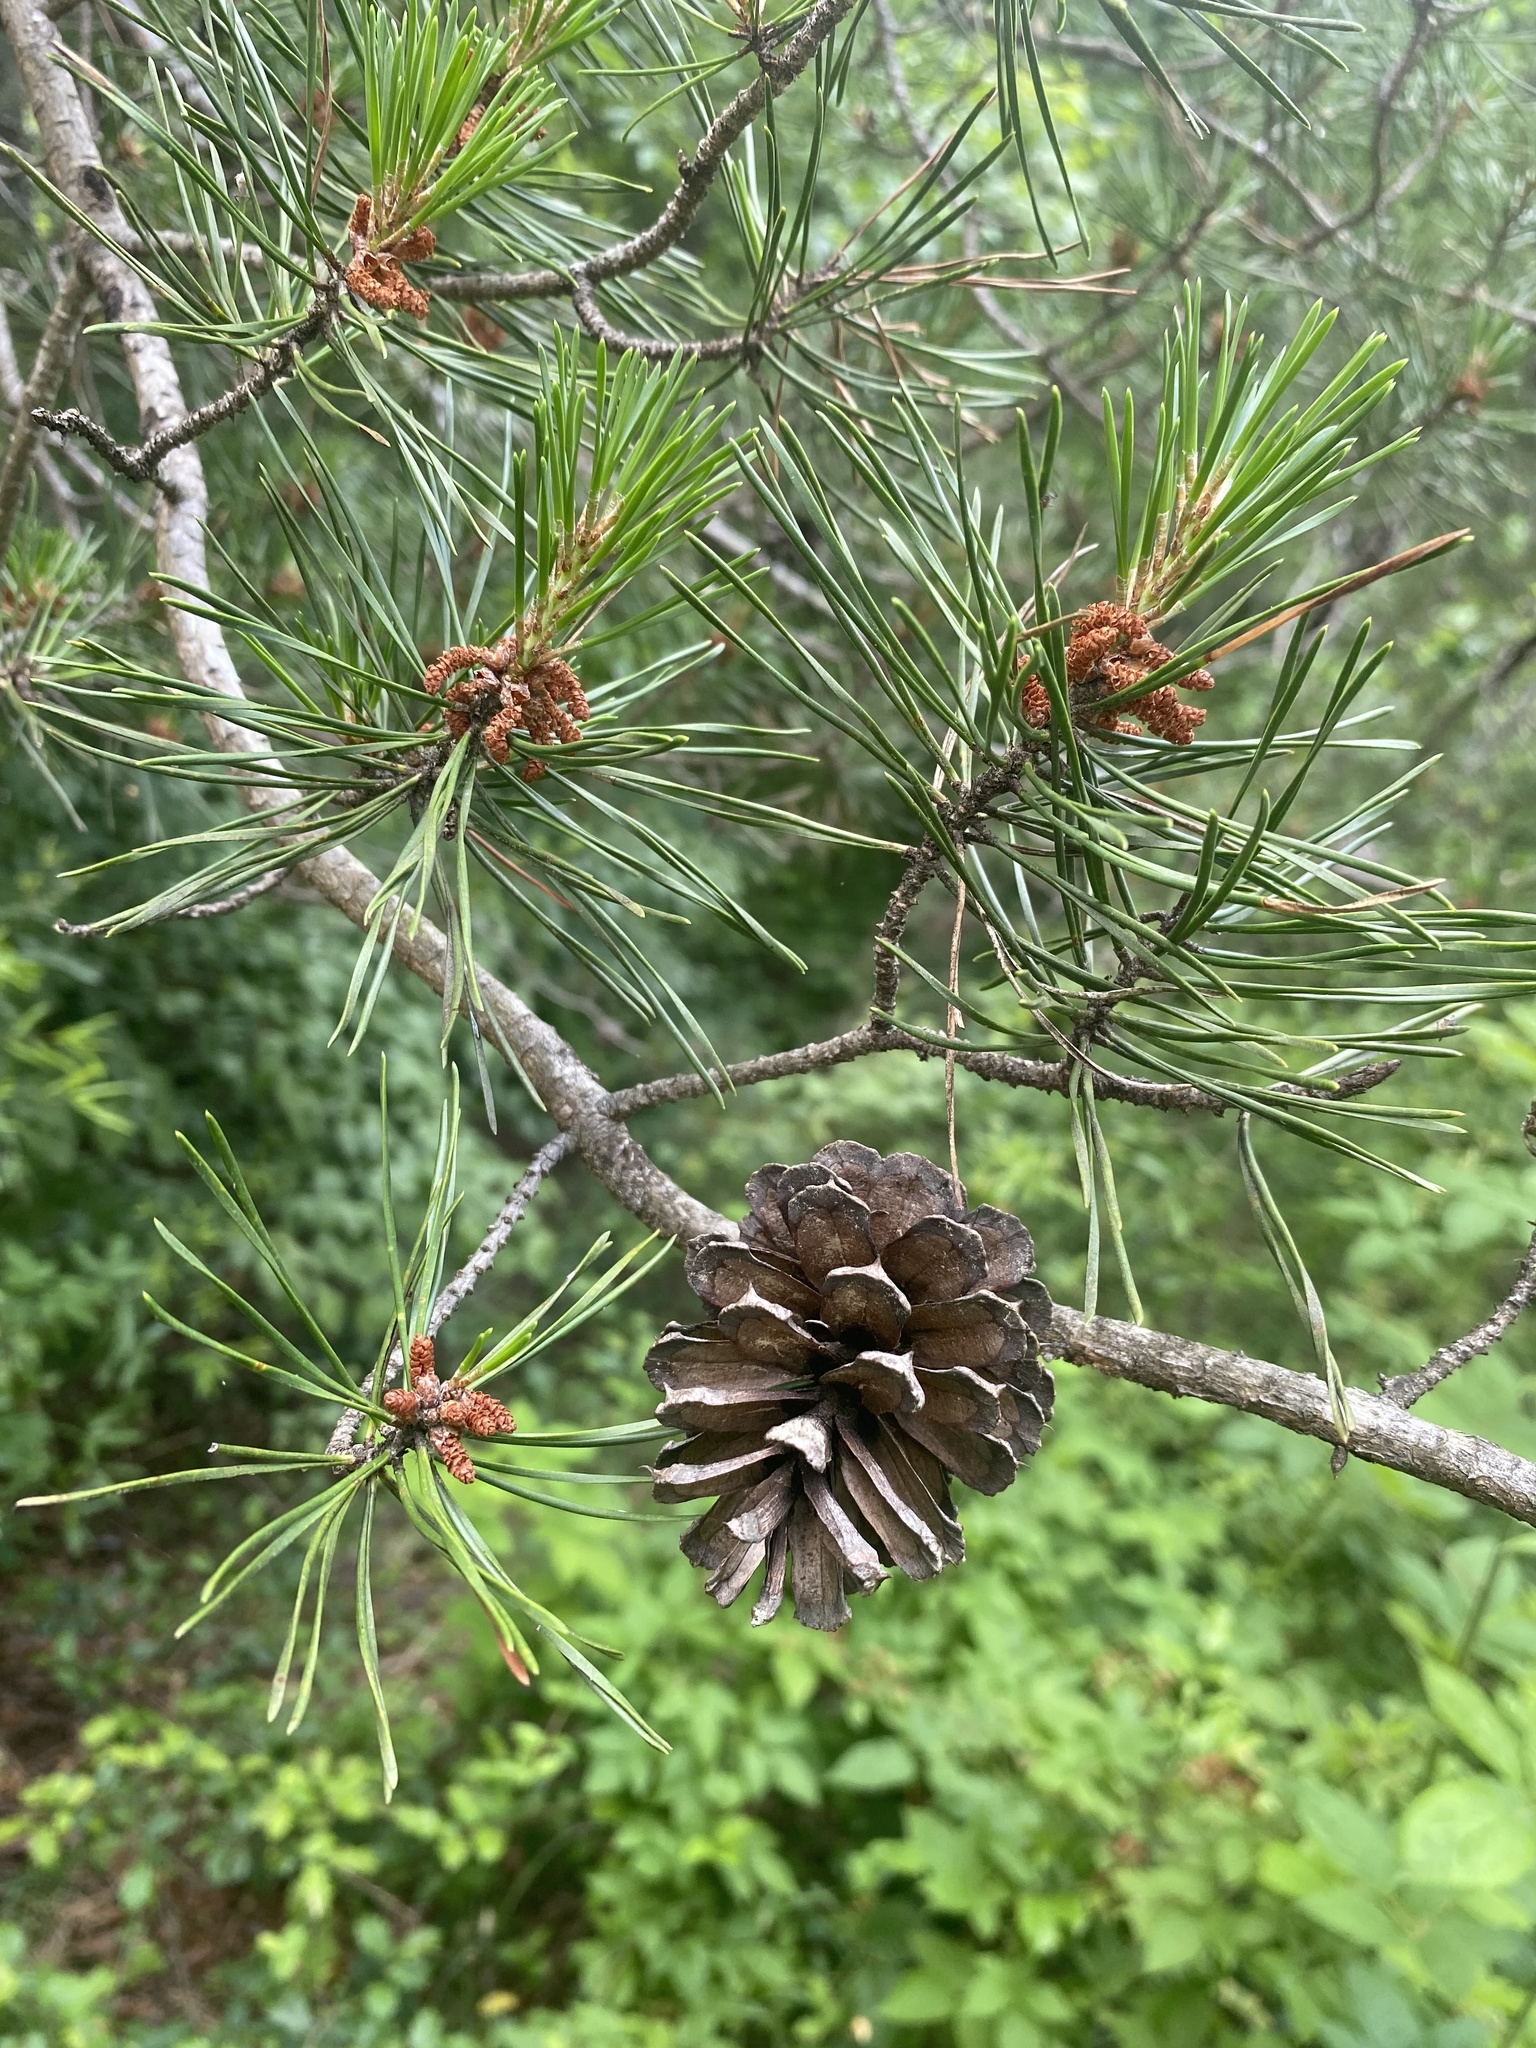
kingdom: Plantae
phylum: Tracheophyta
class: Pinopsida
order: Pinales
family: Pinaceae
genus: Pinus
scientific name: Pinus virginiana
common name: Scrub pine
